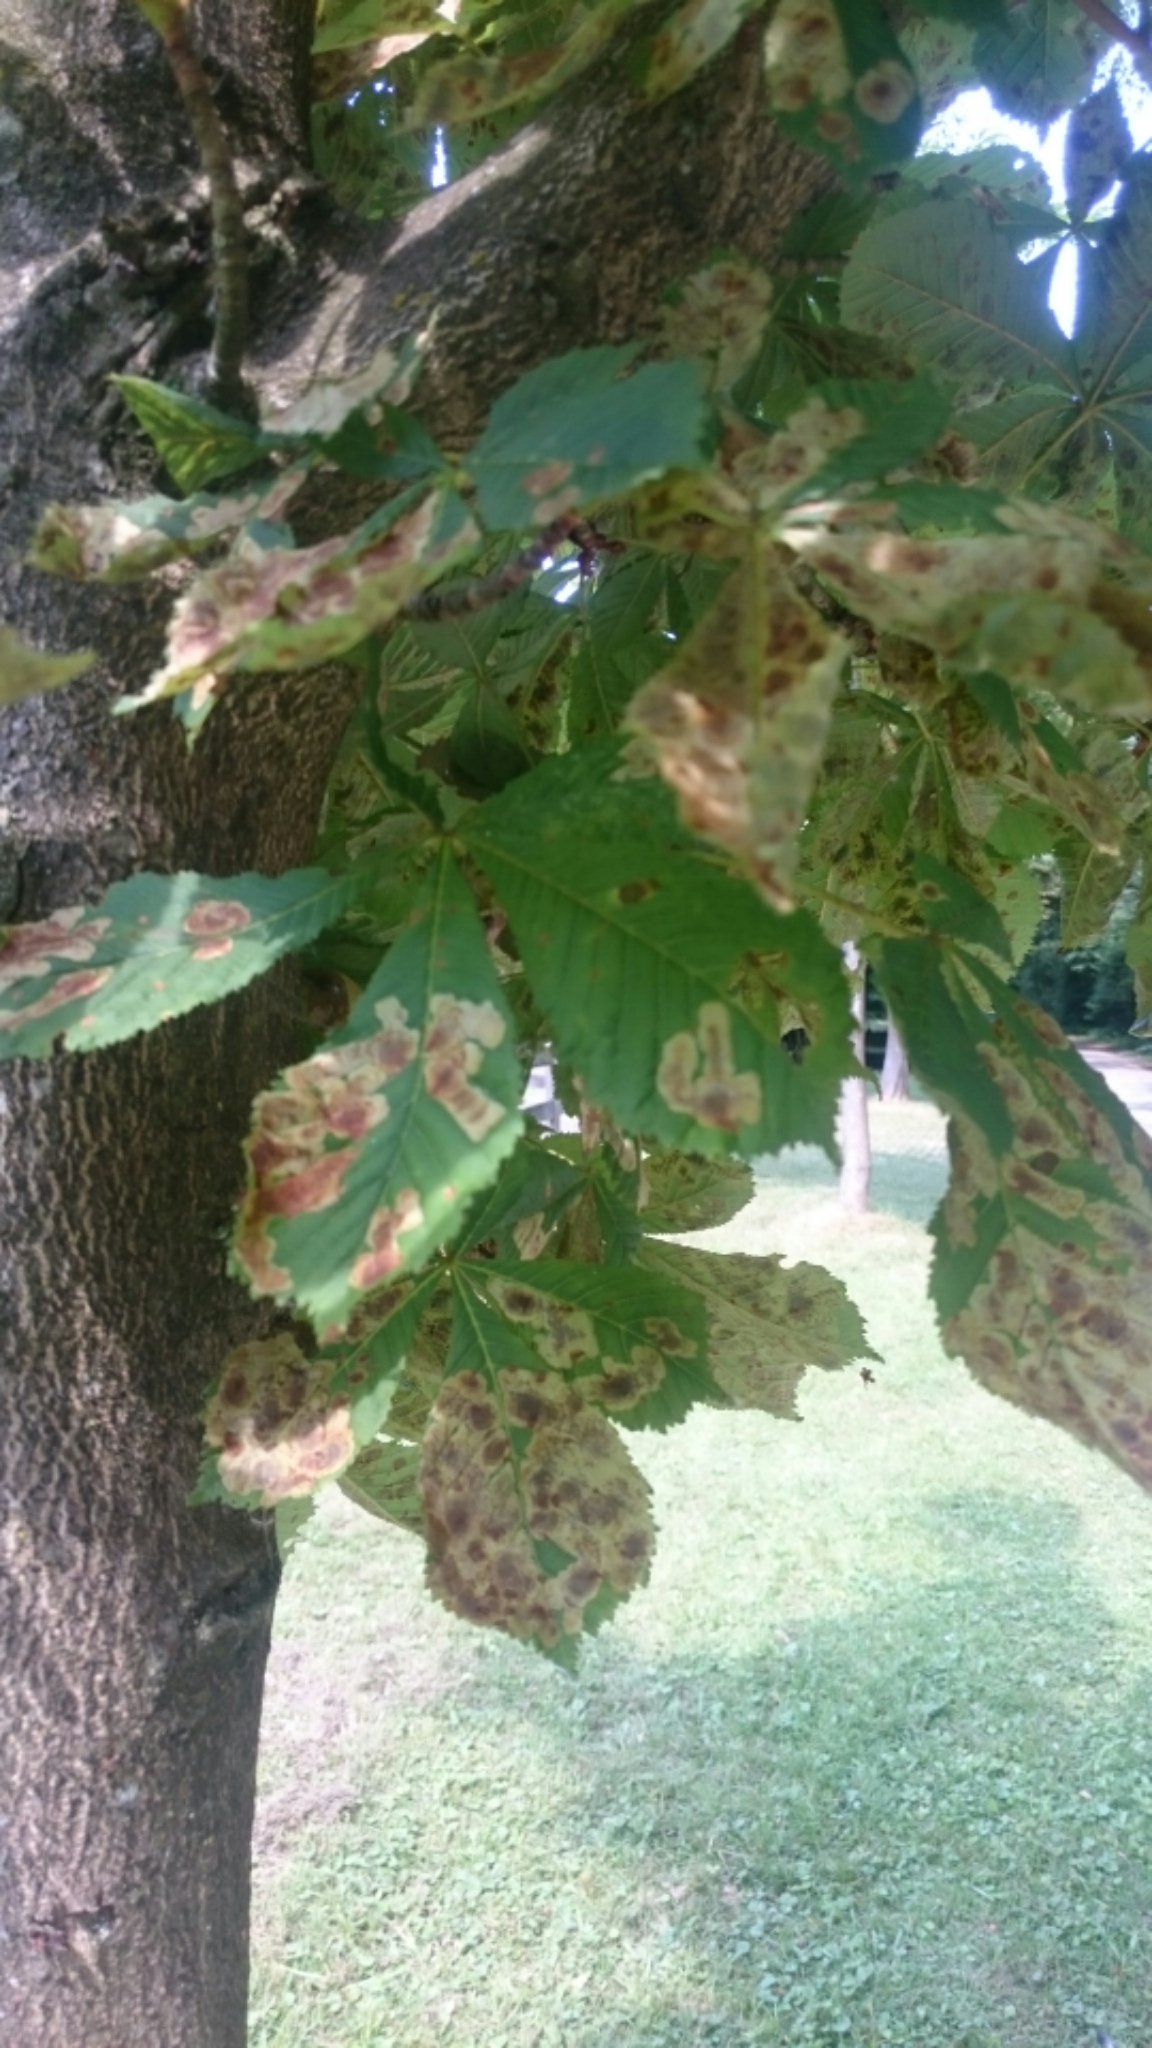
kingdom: Animalia
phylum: Arthropoda
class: Insecta
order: Lepidoptera
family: Gracillariidae
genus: Cameraria
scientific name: Cameraria ohridella
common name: Horse-chestnut leaf-miner
